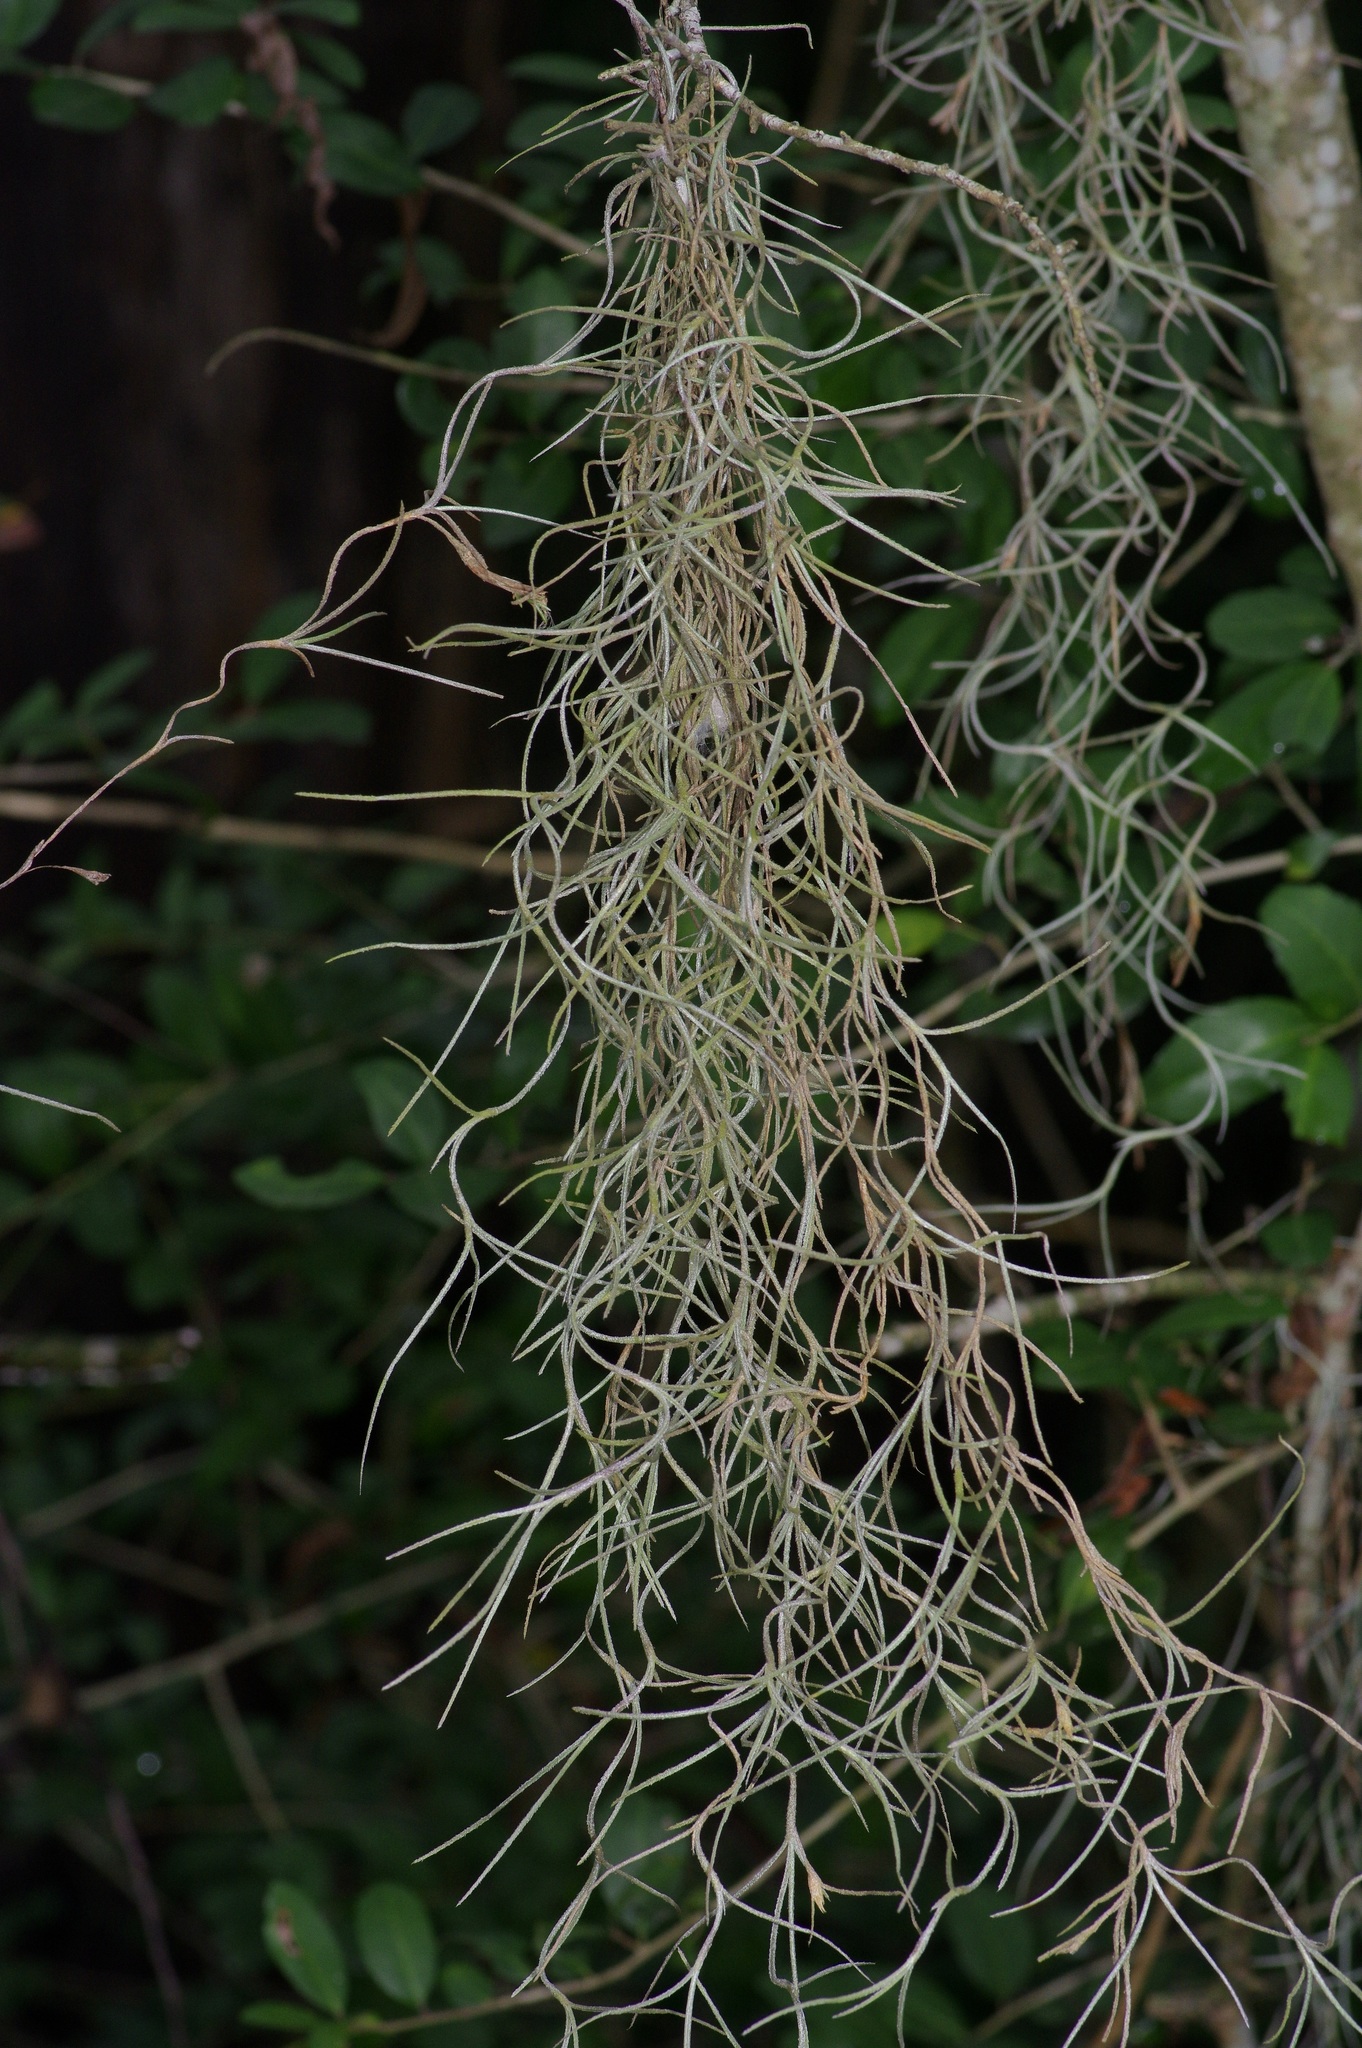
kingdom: Plantae
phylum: Tracheophyta
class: Liliopsida
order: Poales
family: Bromeliaceae
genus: Tillandsia
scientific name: Tillandsia usneoides
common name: Spanish moss
